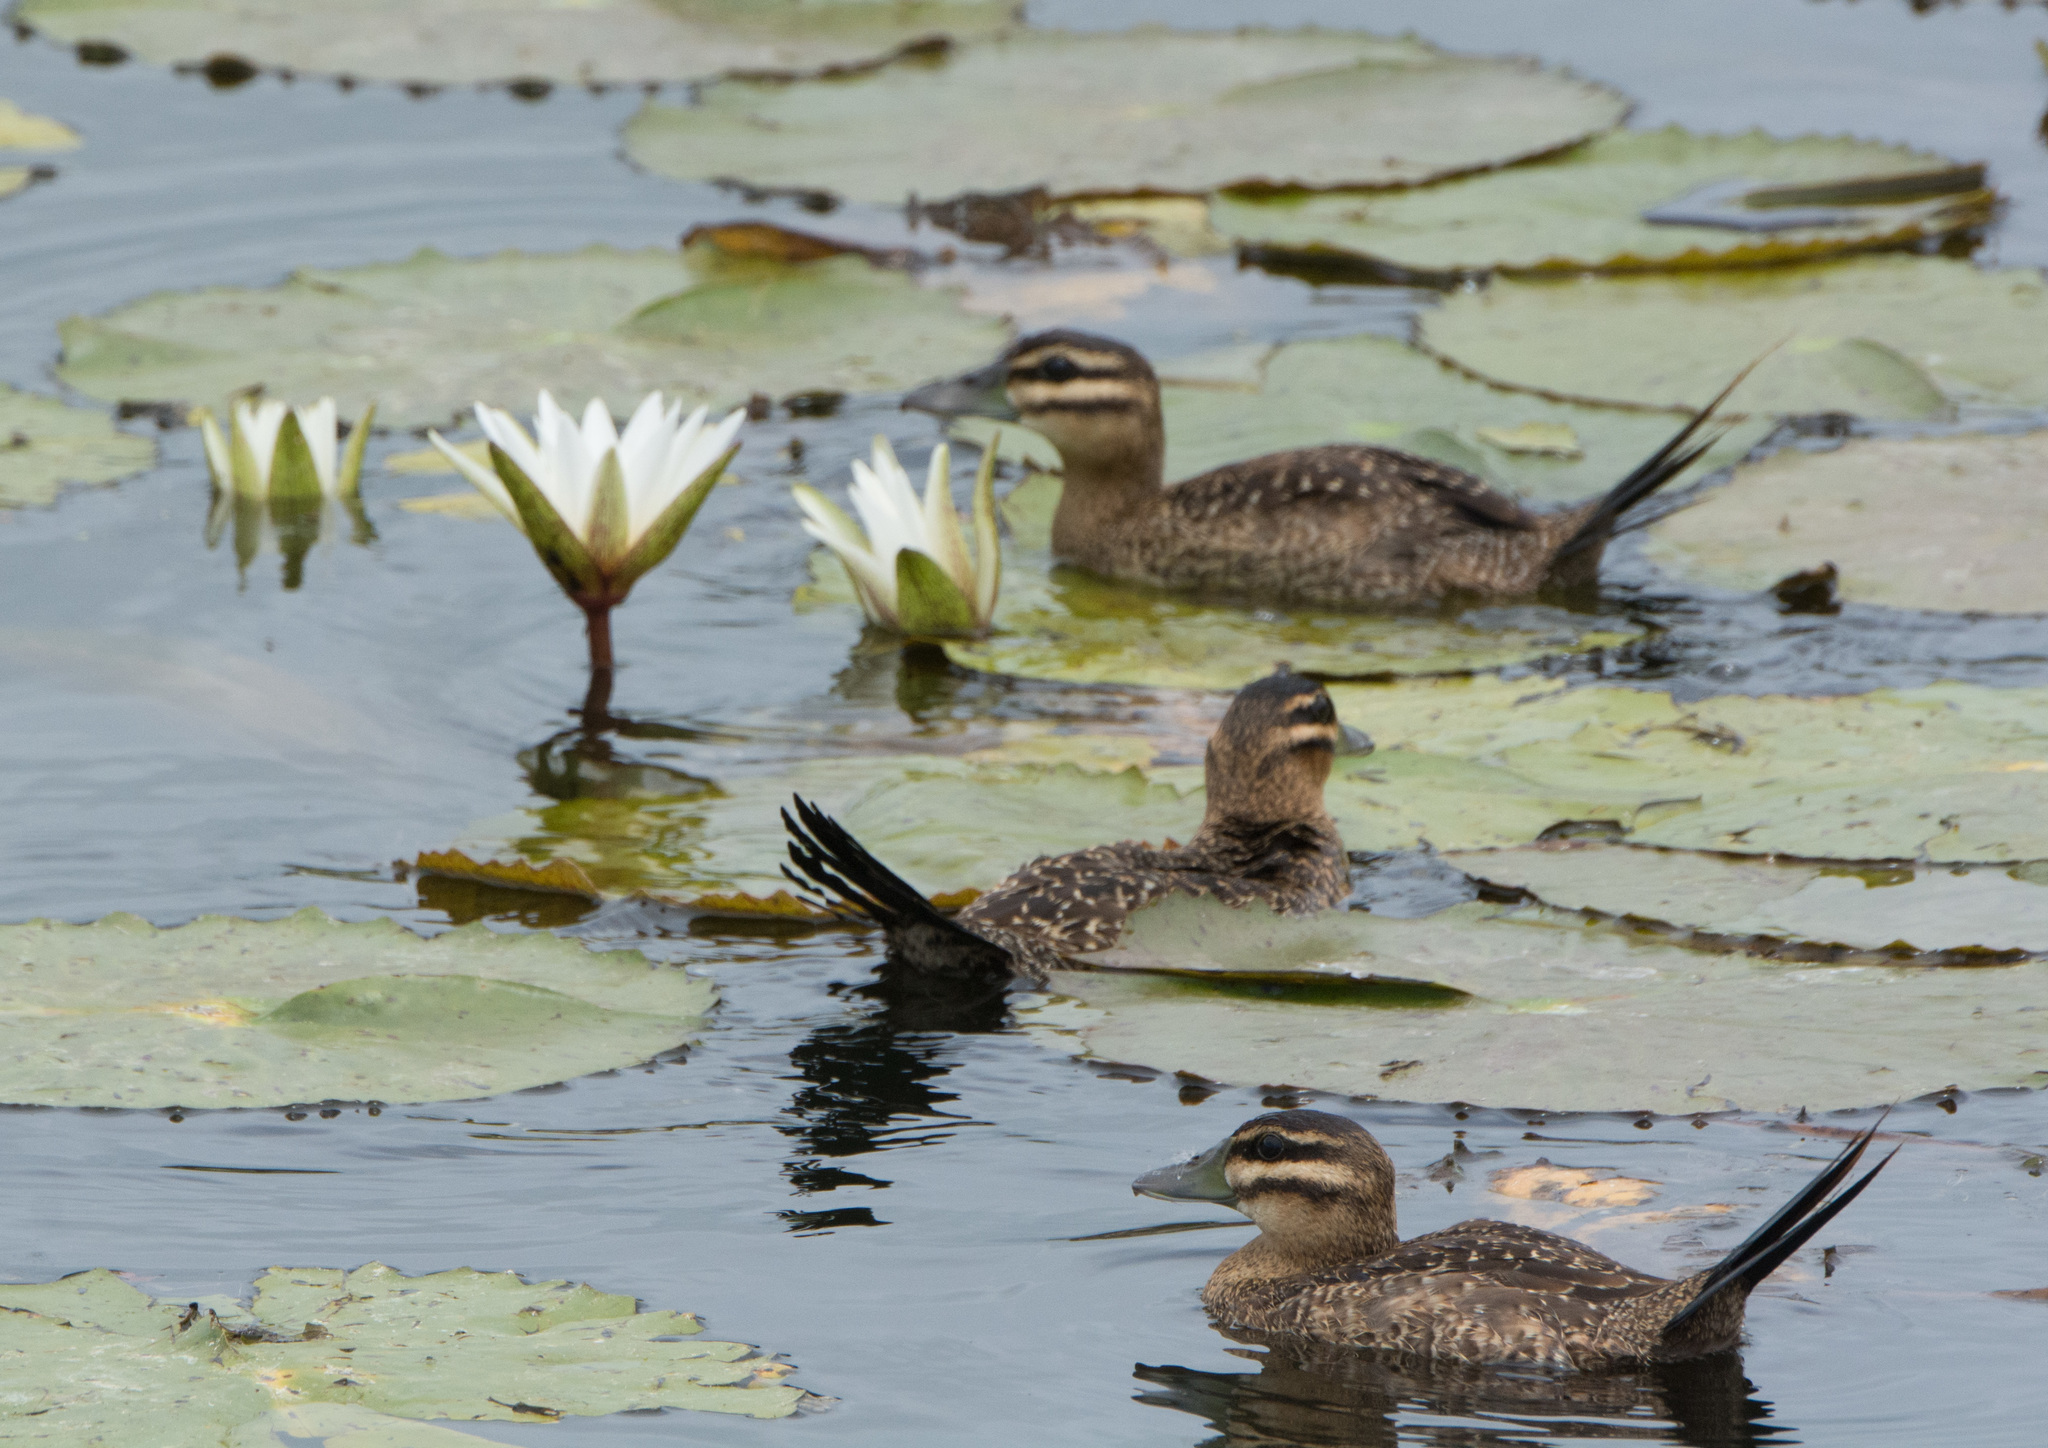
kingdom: Animalia
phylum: Chordata
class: Aves
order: Anseriformes
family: Anatidae
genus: Nomonyx
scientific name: Nomonyx dominicus
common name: Masked duck
